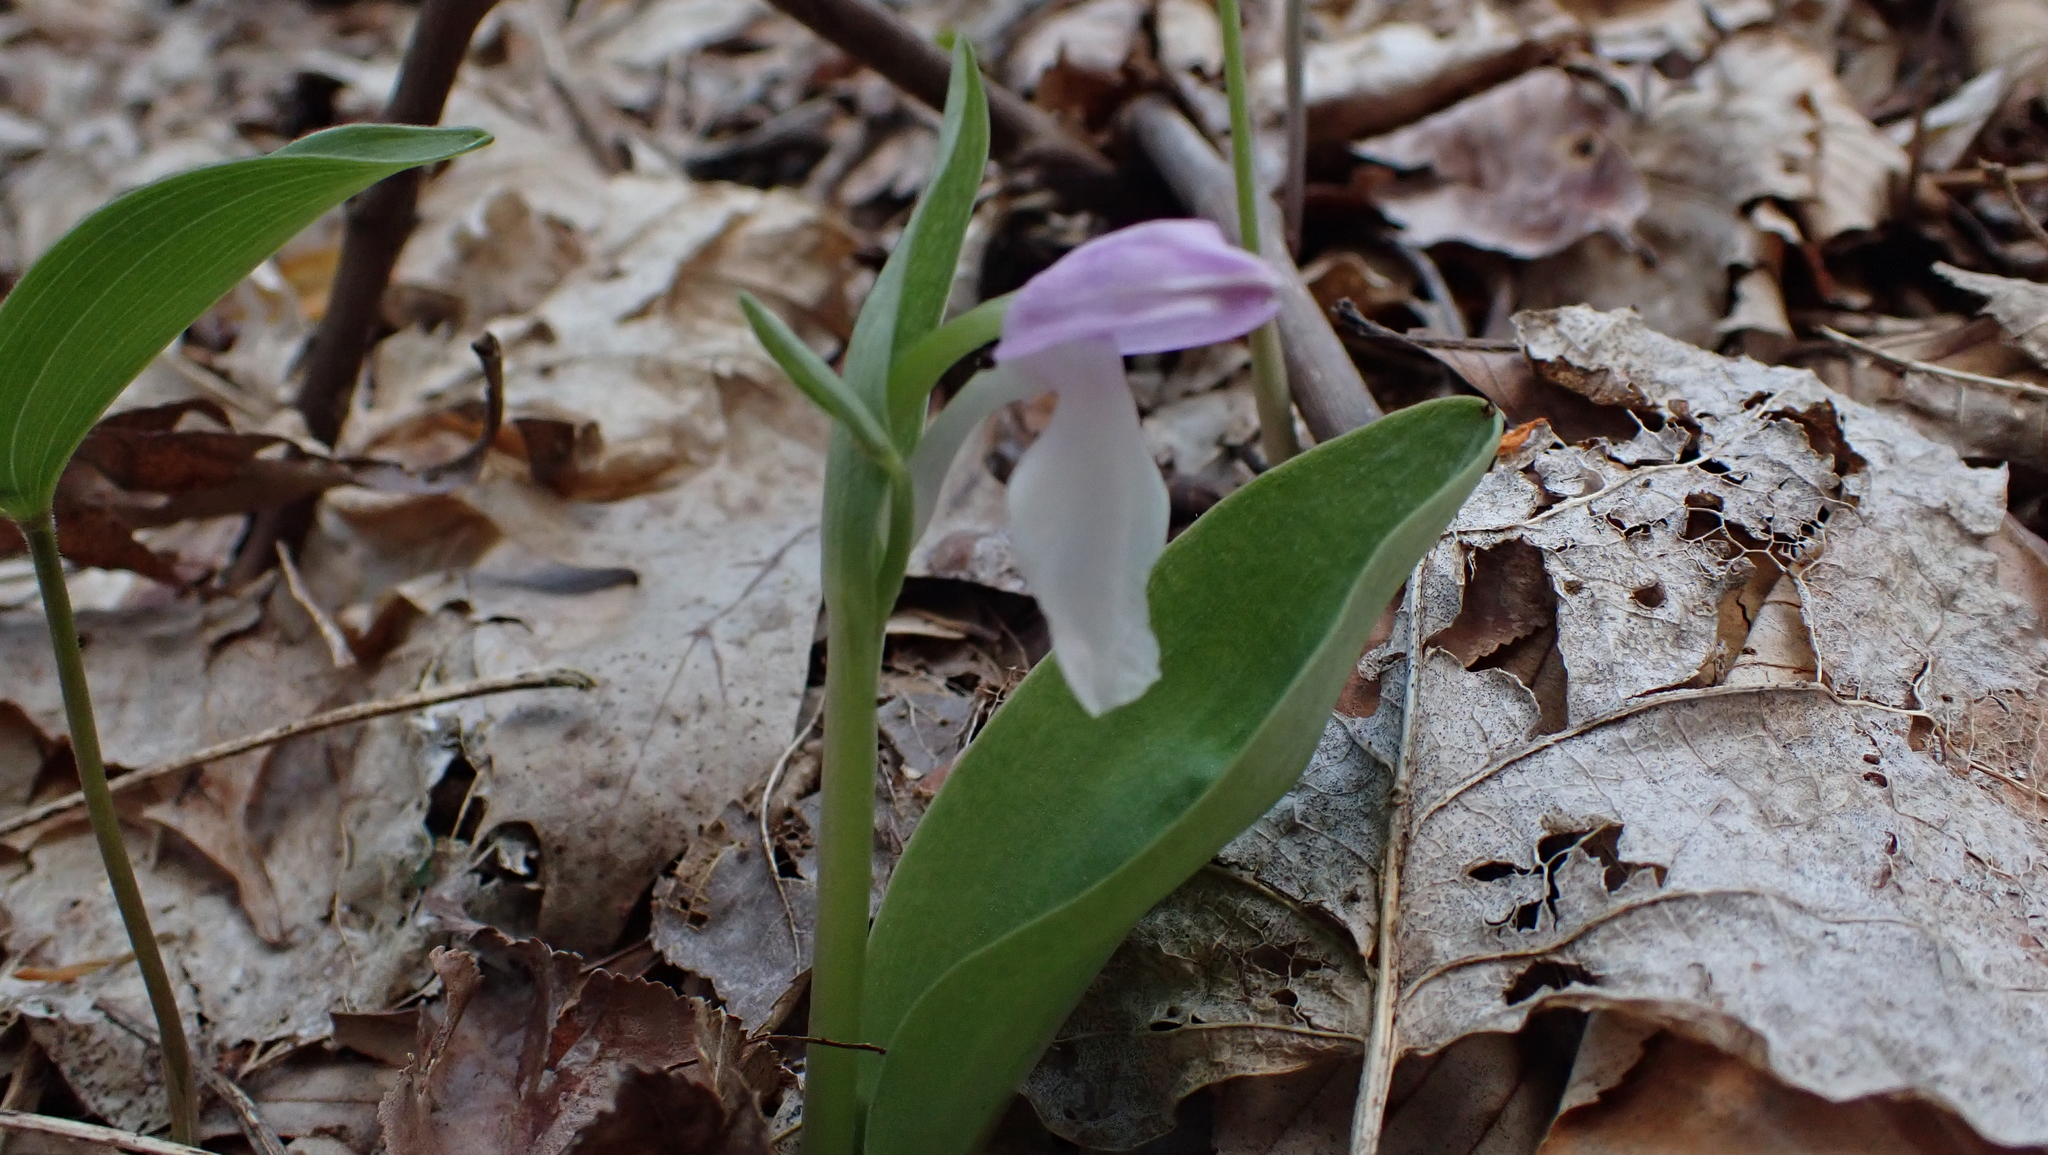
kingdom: Plantae
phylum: Tracheophyta
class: Liliopsida
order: Asparagales
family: Orchidaceae
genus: Galearis
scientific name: Galearis spectabilis
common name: Purple-hooded orchis
